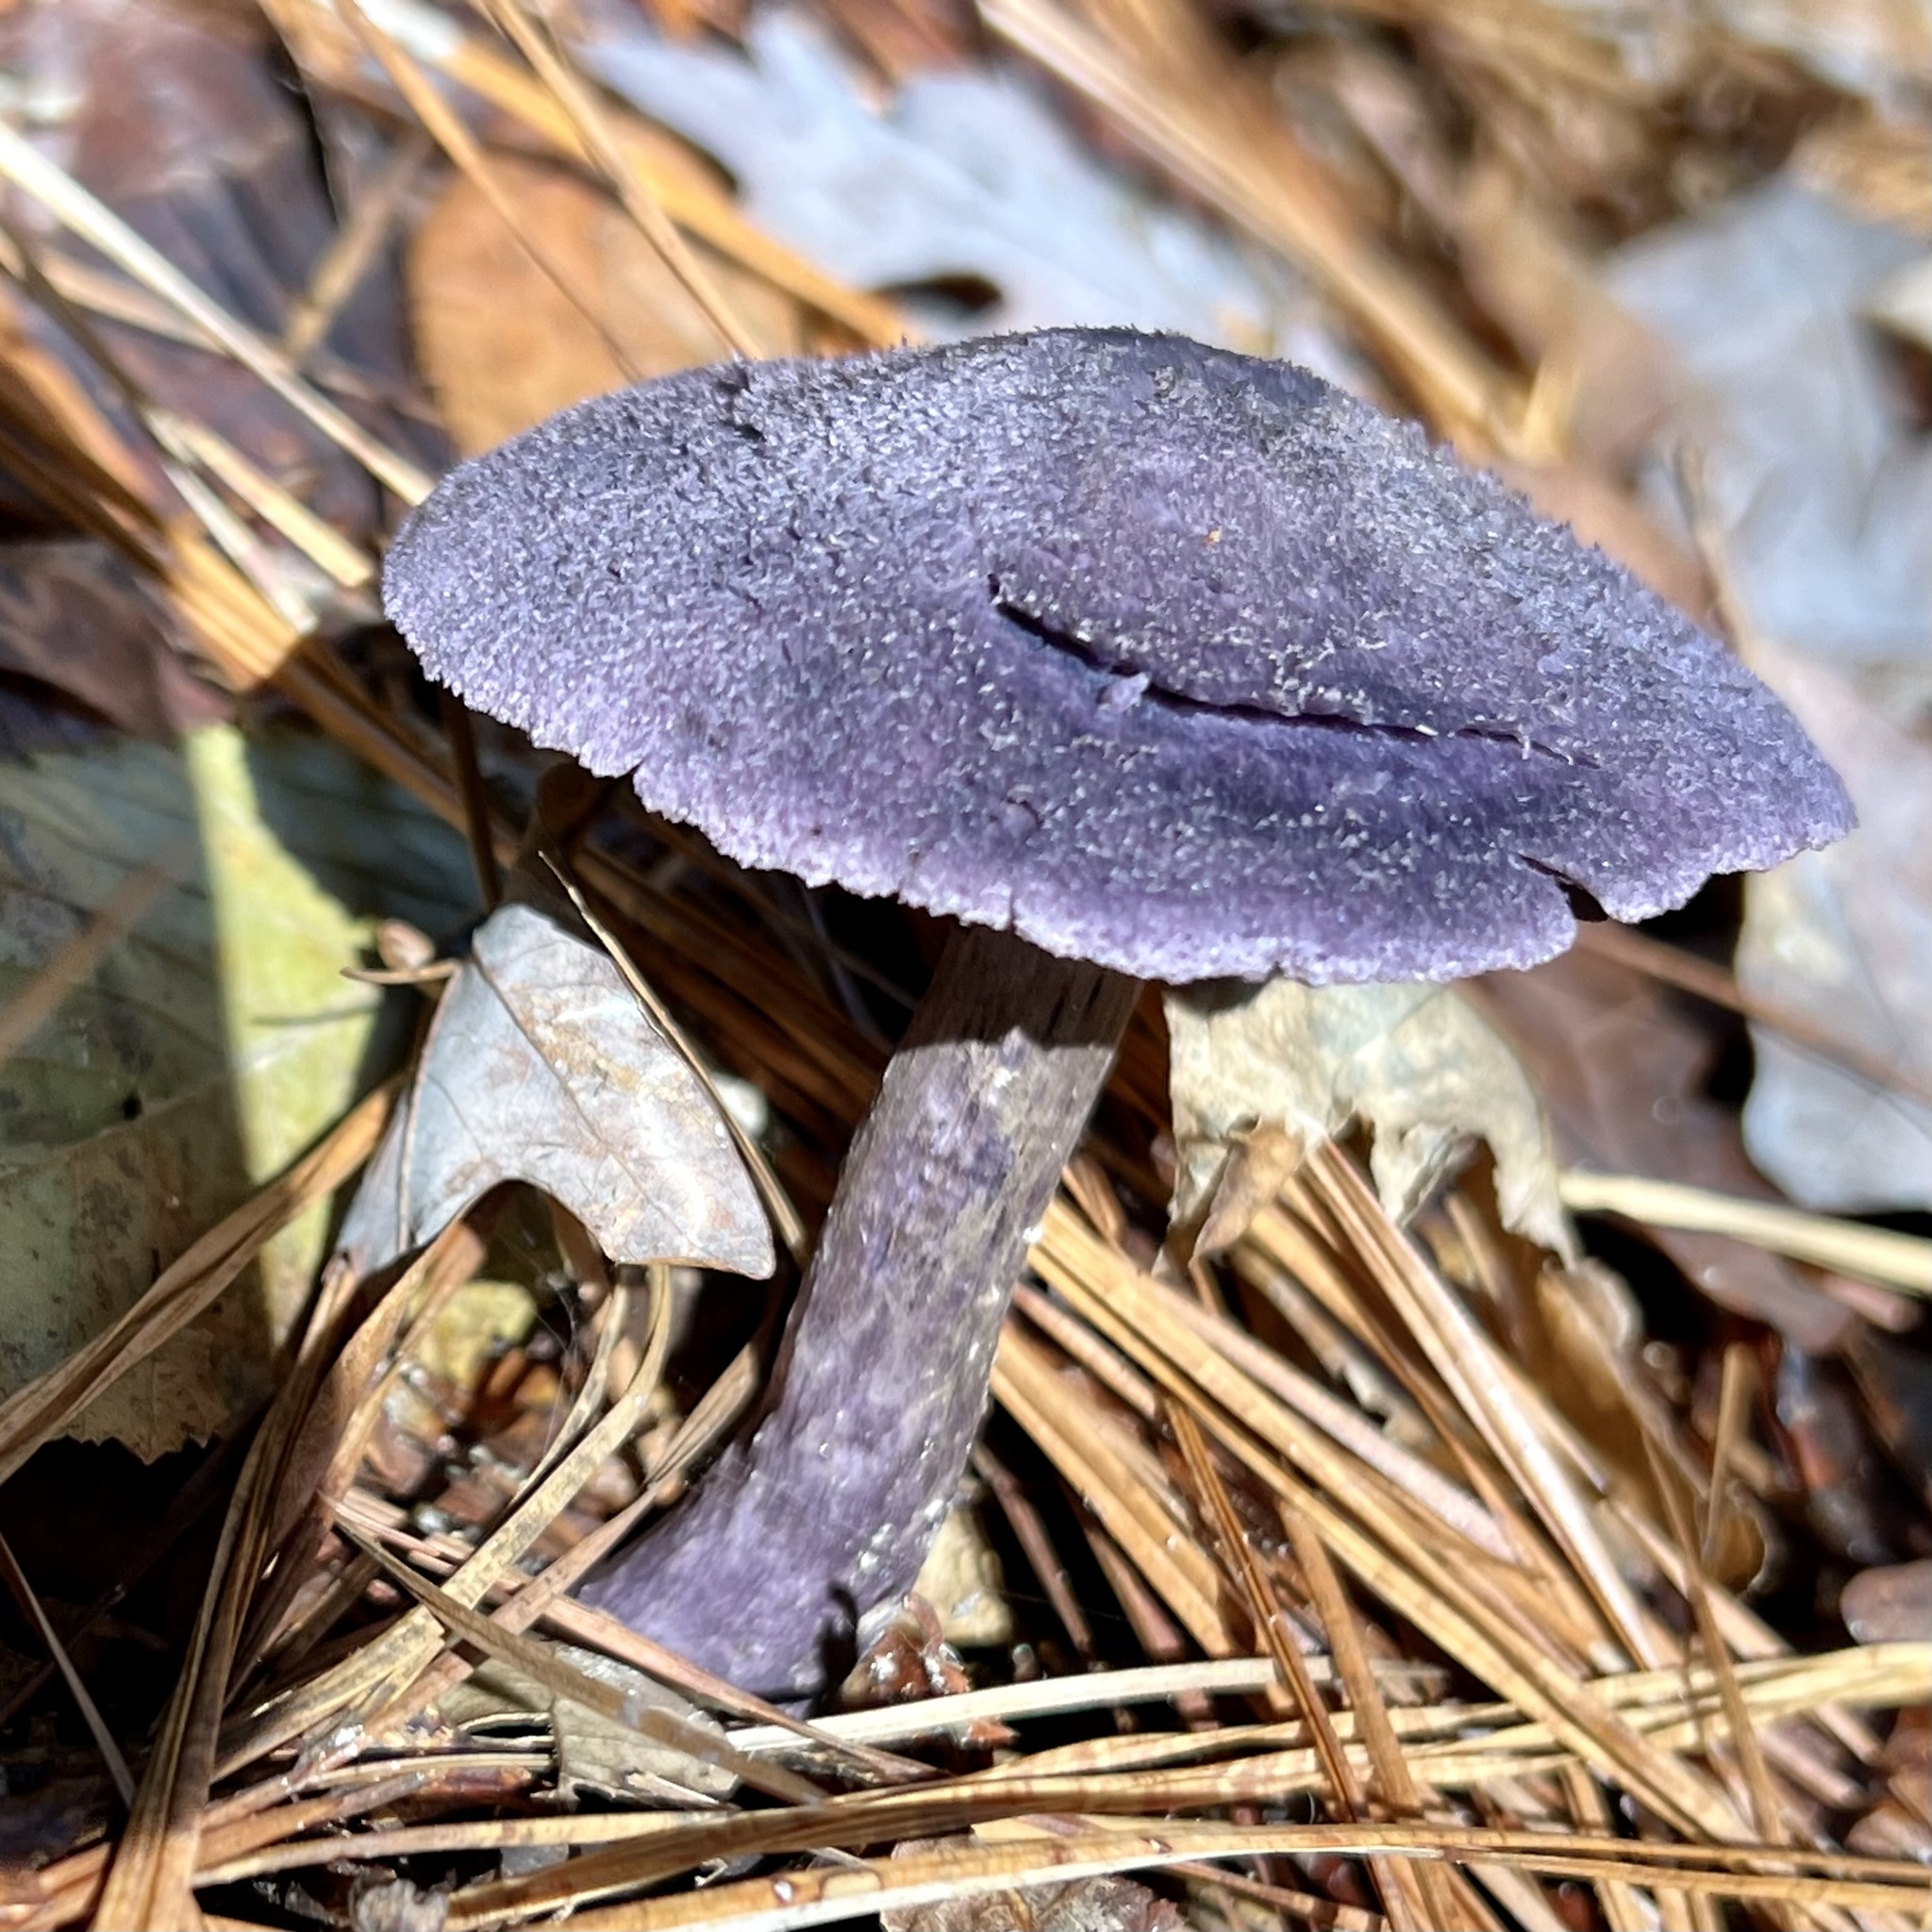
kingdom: Fungi
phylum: Basidiomycota
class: Agaricomycetes
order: Agaricales
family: Cortinariaceae
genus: Cortinarius
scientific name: Cortinarius violaceus
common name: Violet webcap
